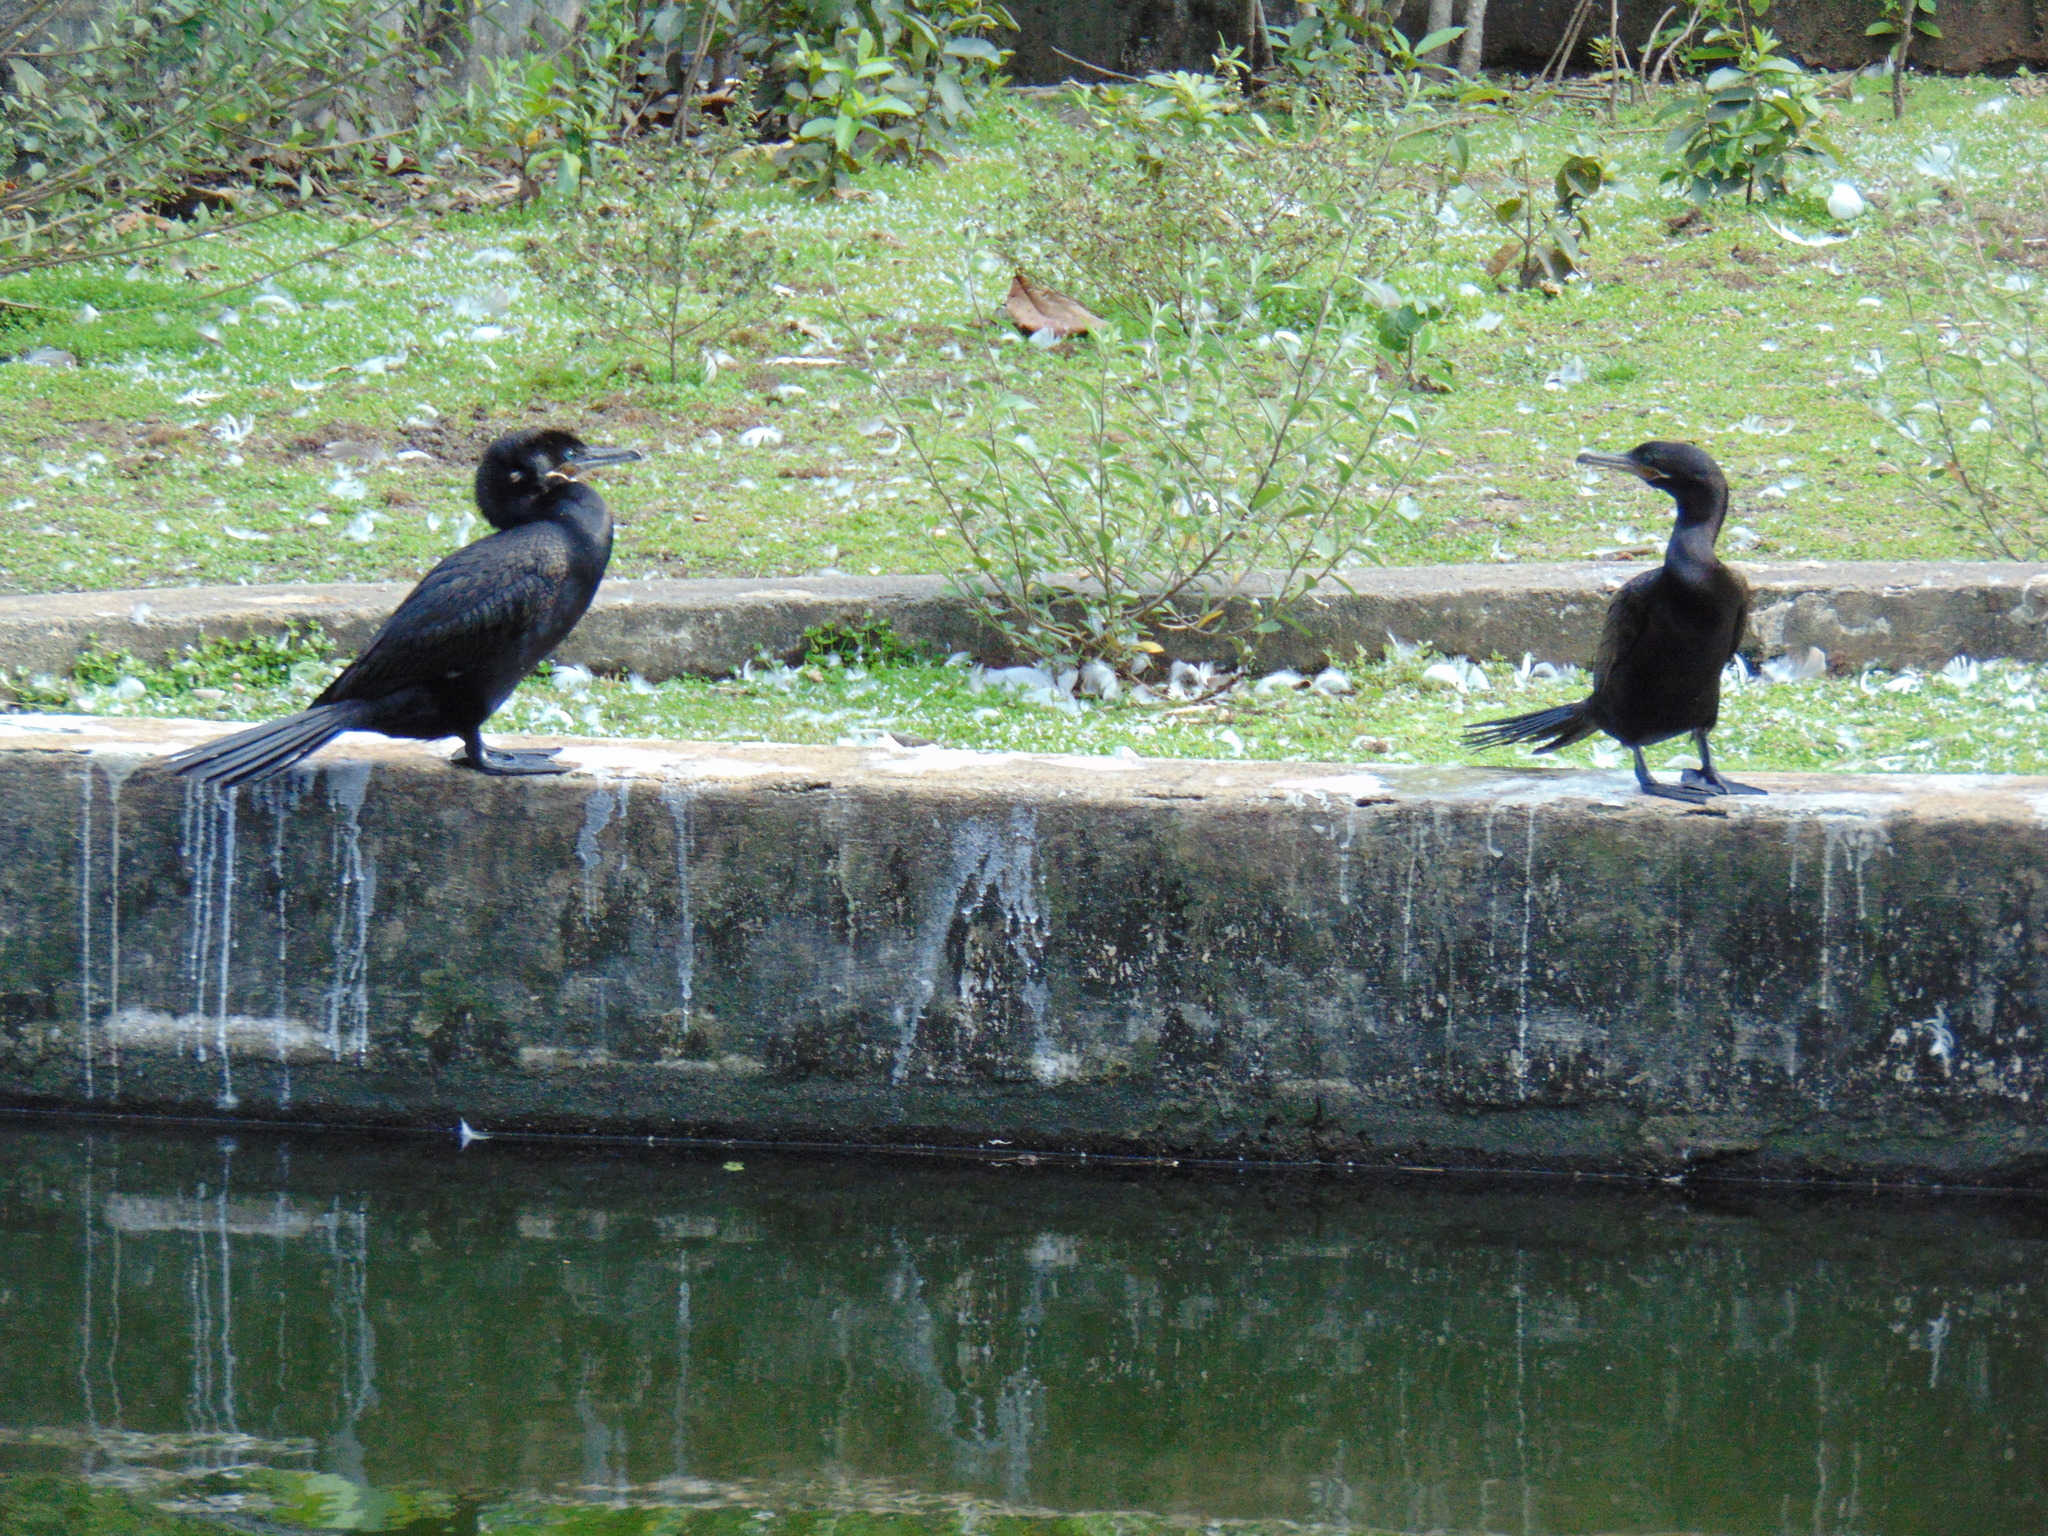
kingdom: Animalia
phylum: Chordata
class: Aves
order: Suliformes
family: Phalacrocoracidae
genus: Phalacrocorax
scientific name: Phalacrocorax brasilianus
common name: Neotropic cormorant
